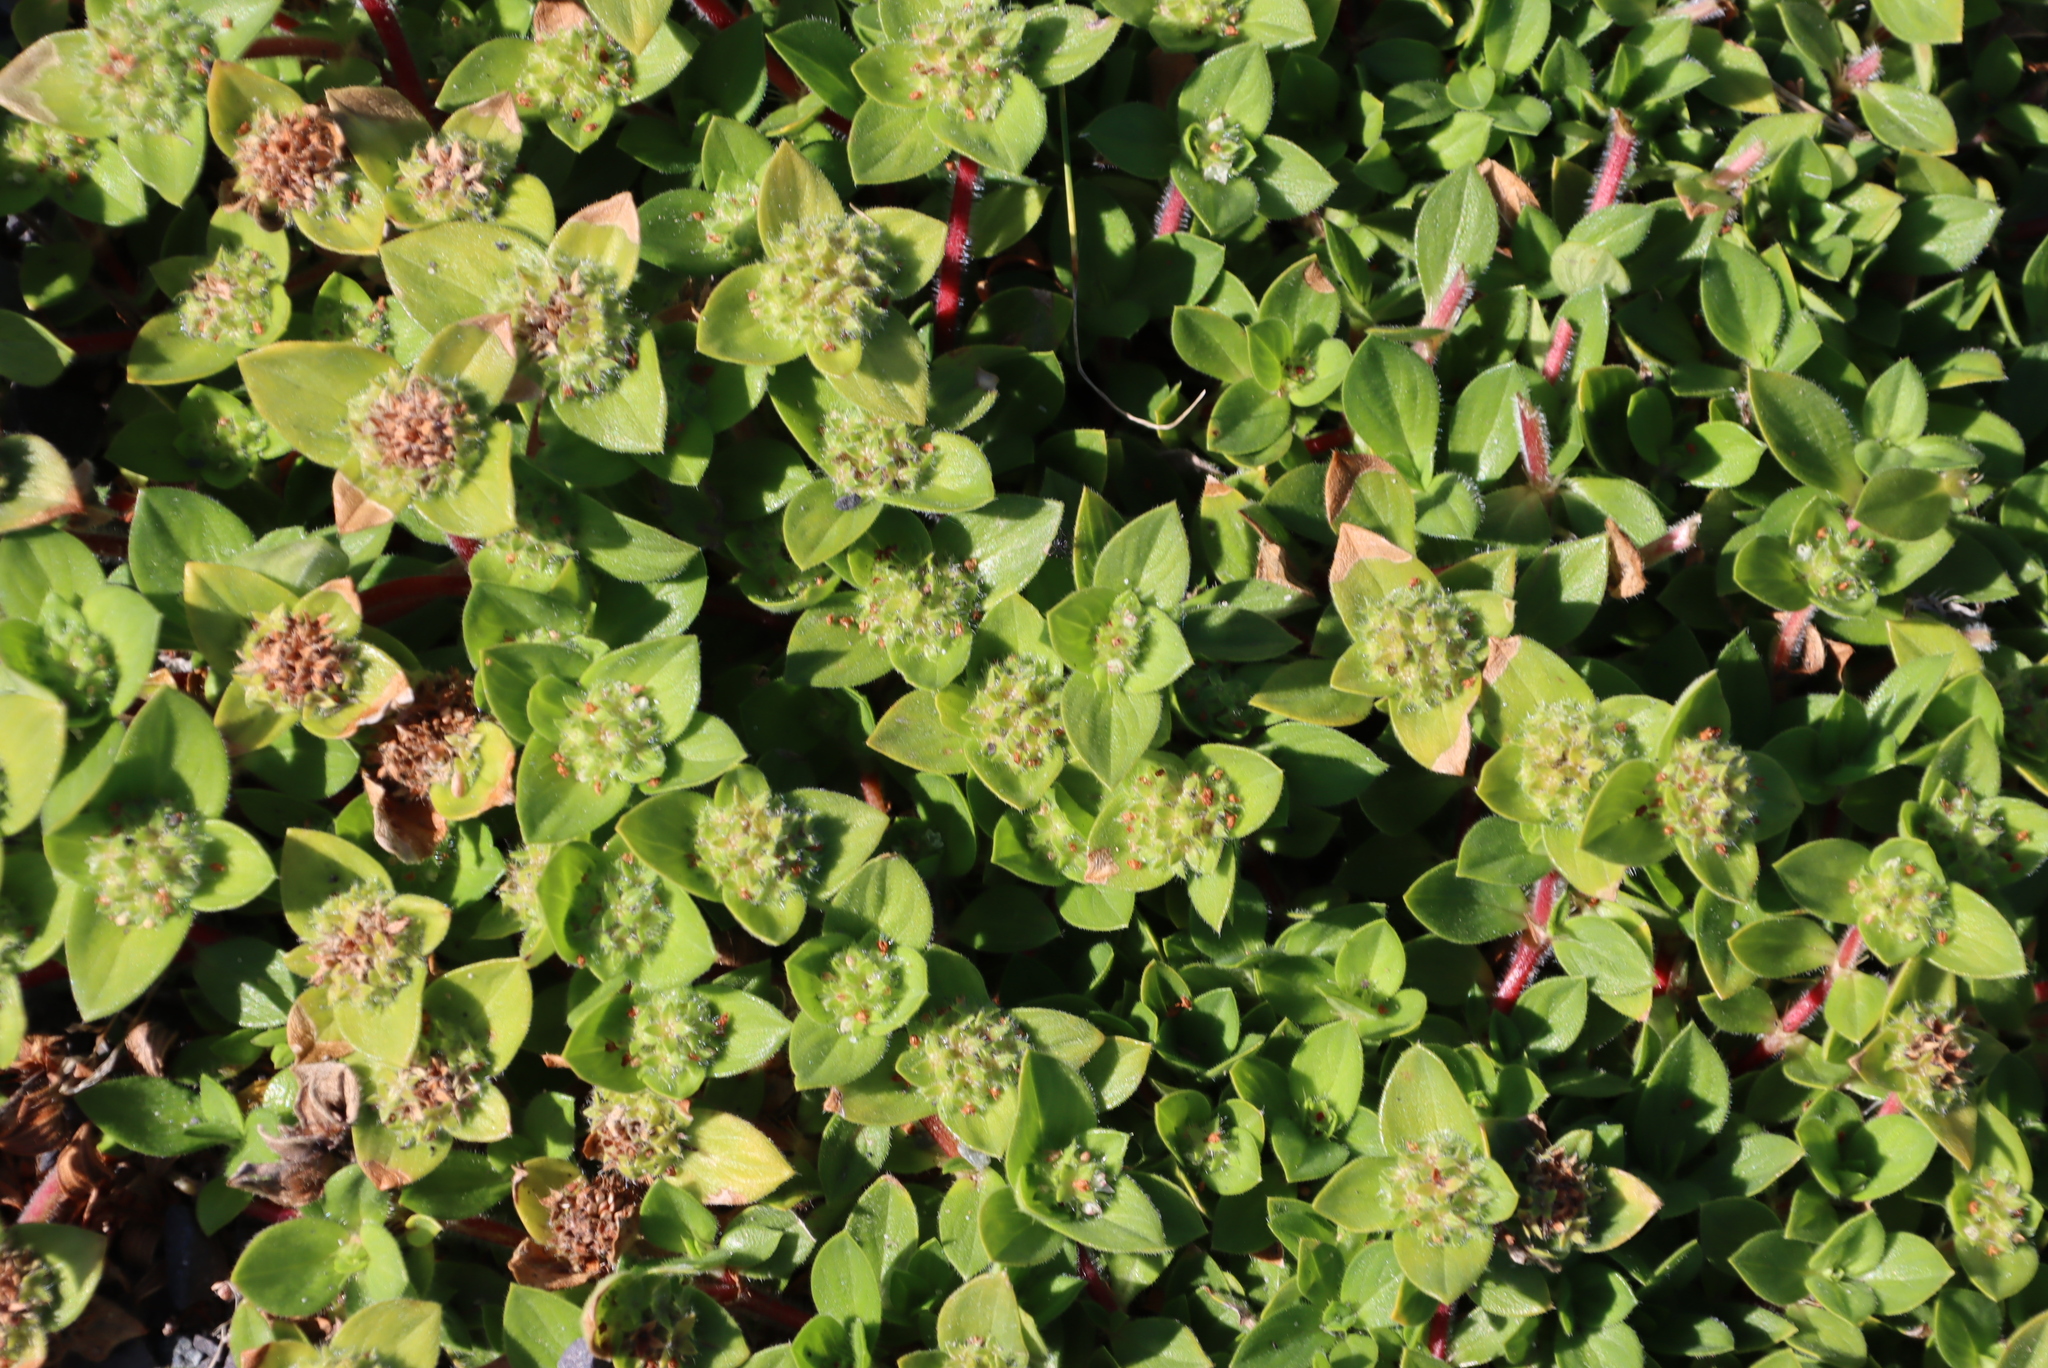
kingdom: Plantae
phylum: Tracheophyta
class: Magnoliopsida
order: Gentianales
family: Rubiaceae
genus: Richardia
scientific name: Richardia brasiliensis
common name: Tropical mexican clover
